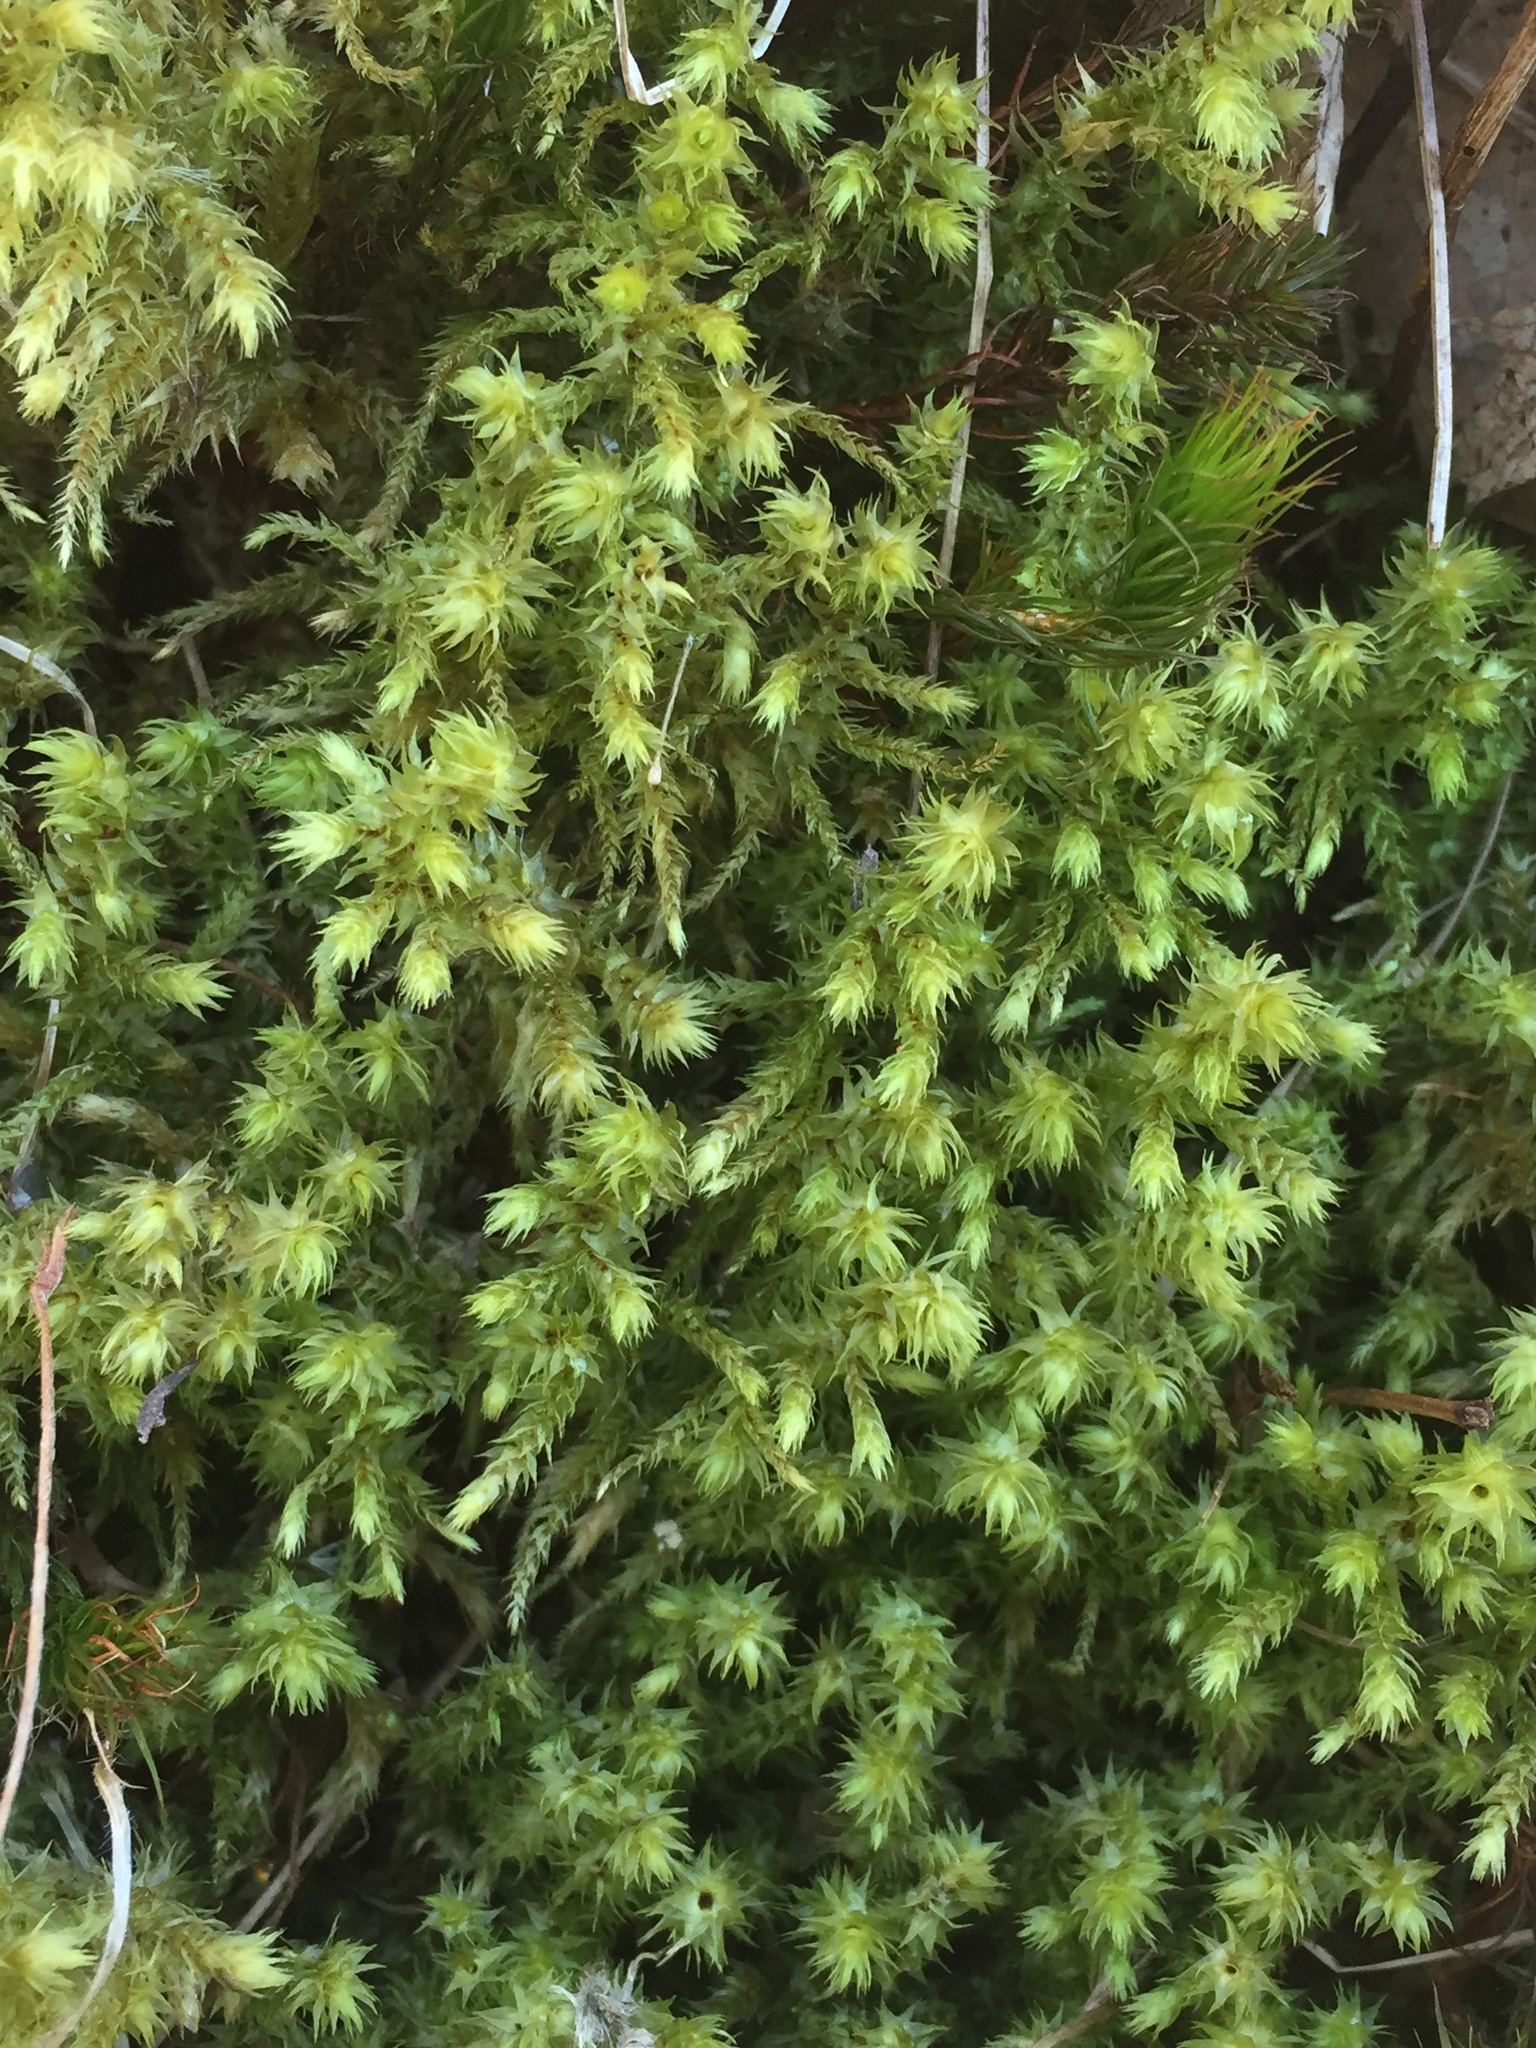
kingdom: Plantae
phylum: Bryophyta
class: Bryopsida
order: Hypnales
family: Hylocomiaceae
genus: Hylocomiadelphus
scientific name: Hylocomiadelphus triquetrus
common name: Rough goose neck moss
